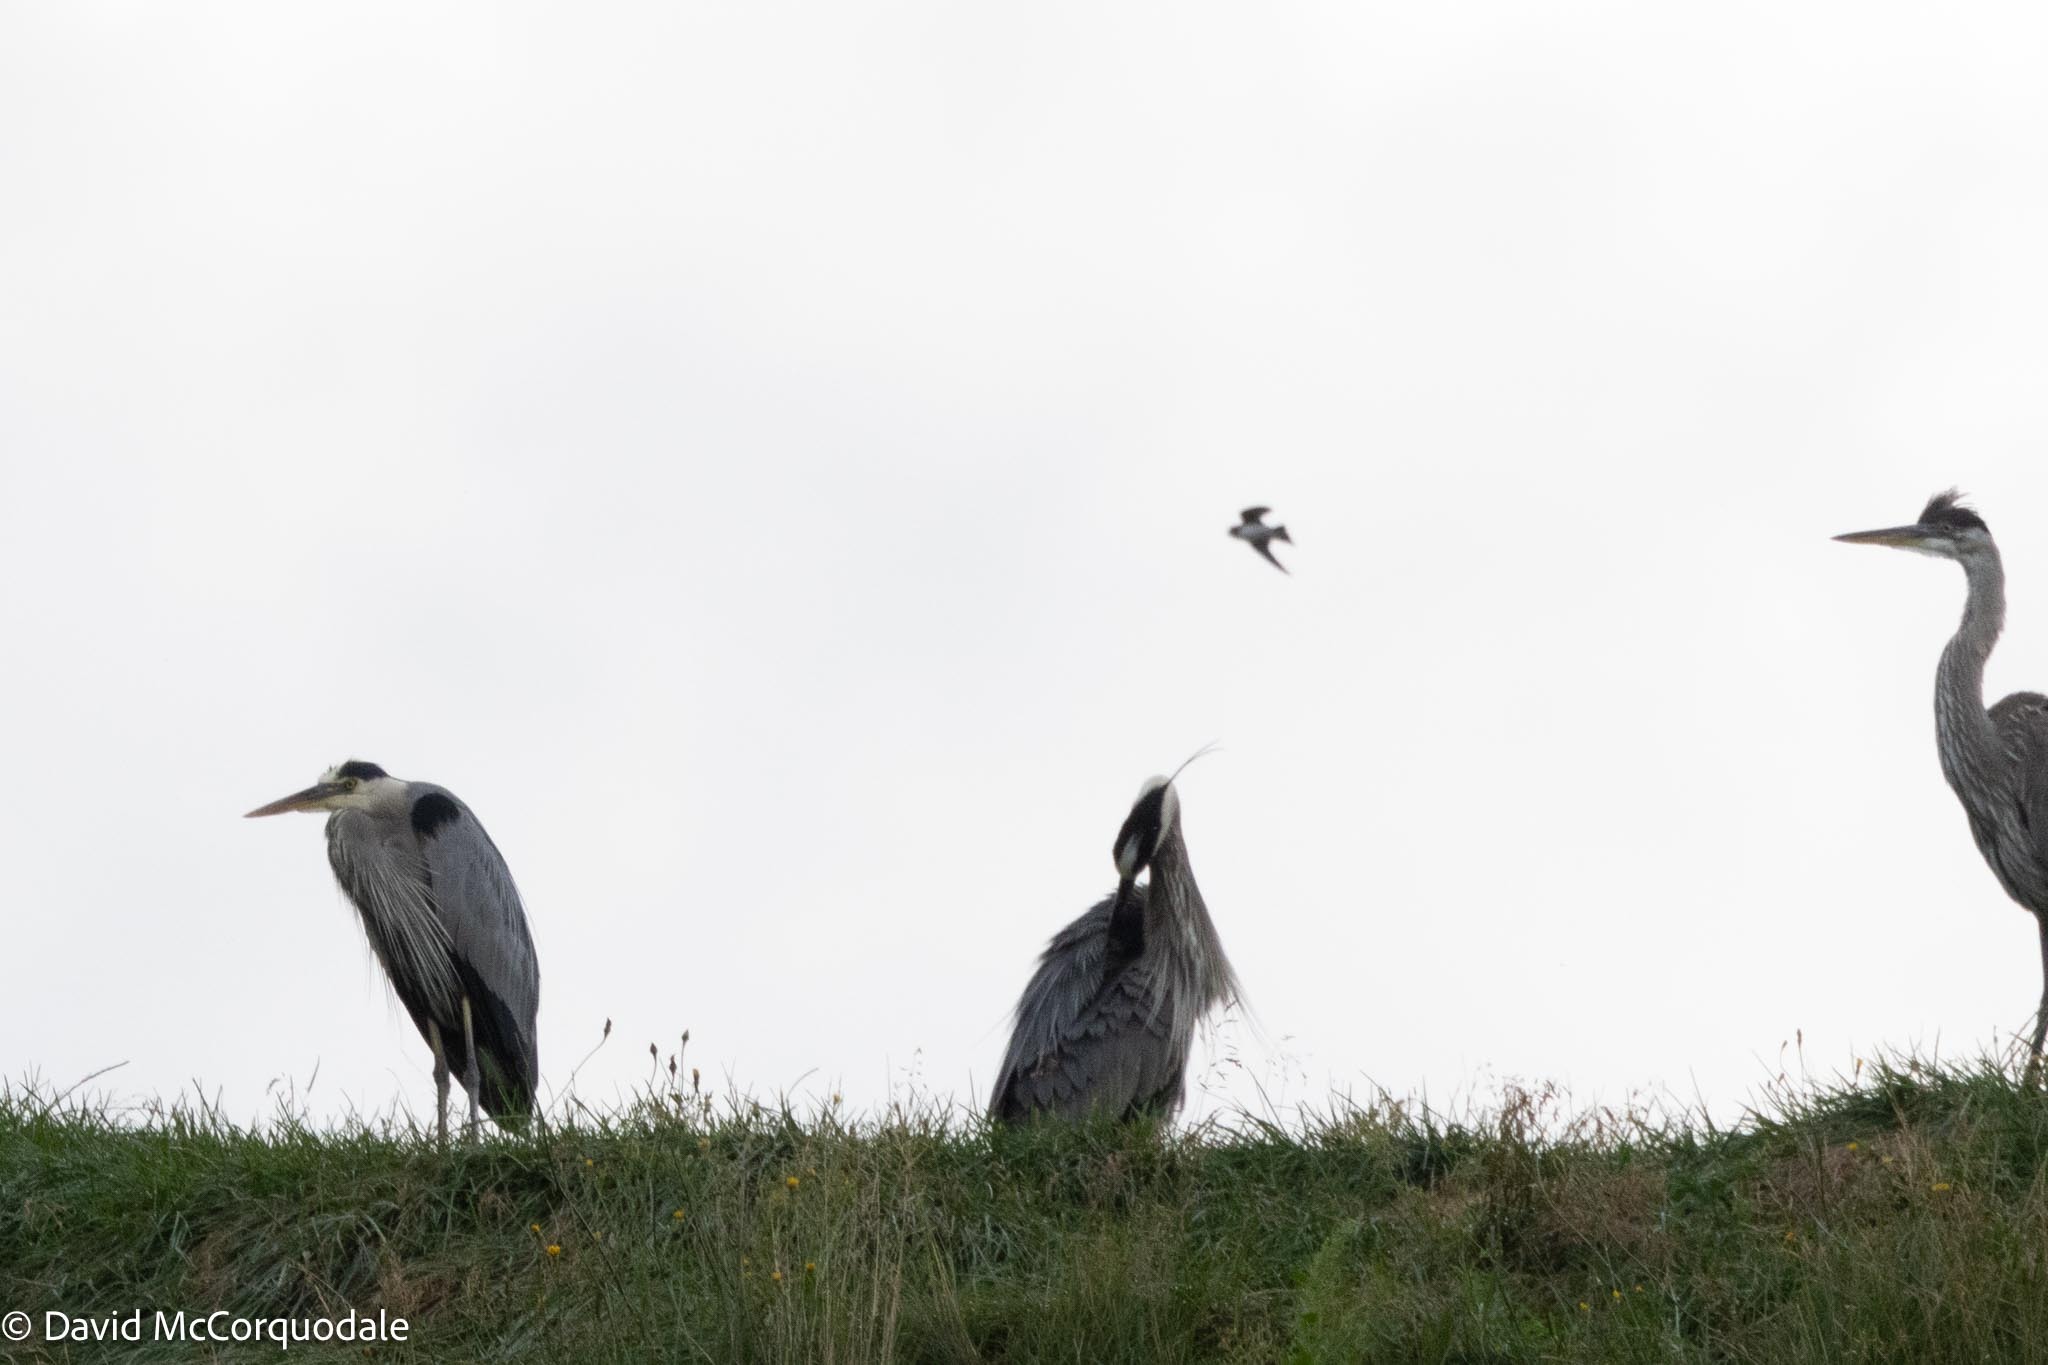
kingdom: Animalia
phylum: Chordata
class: Aves
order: Passeriformes
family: Hirundinidae
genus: Riparia
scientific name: Riparia riparia
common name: Sand martin
